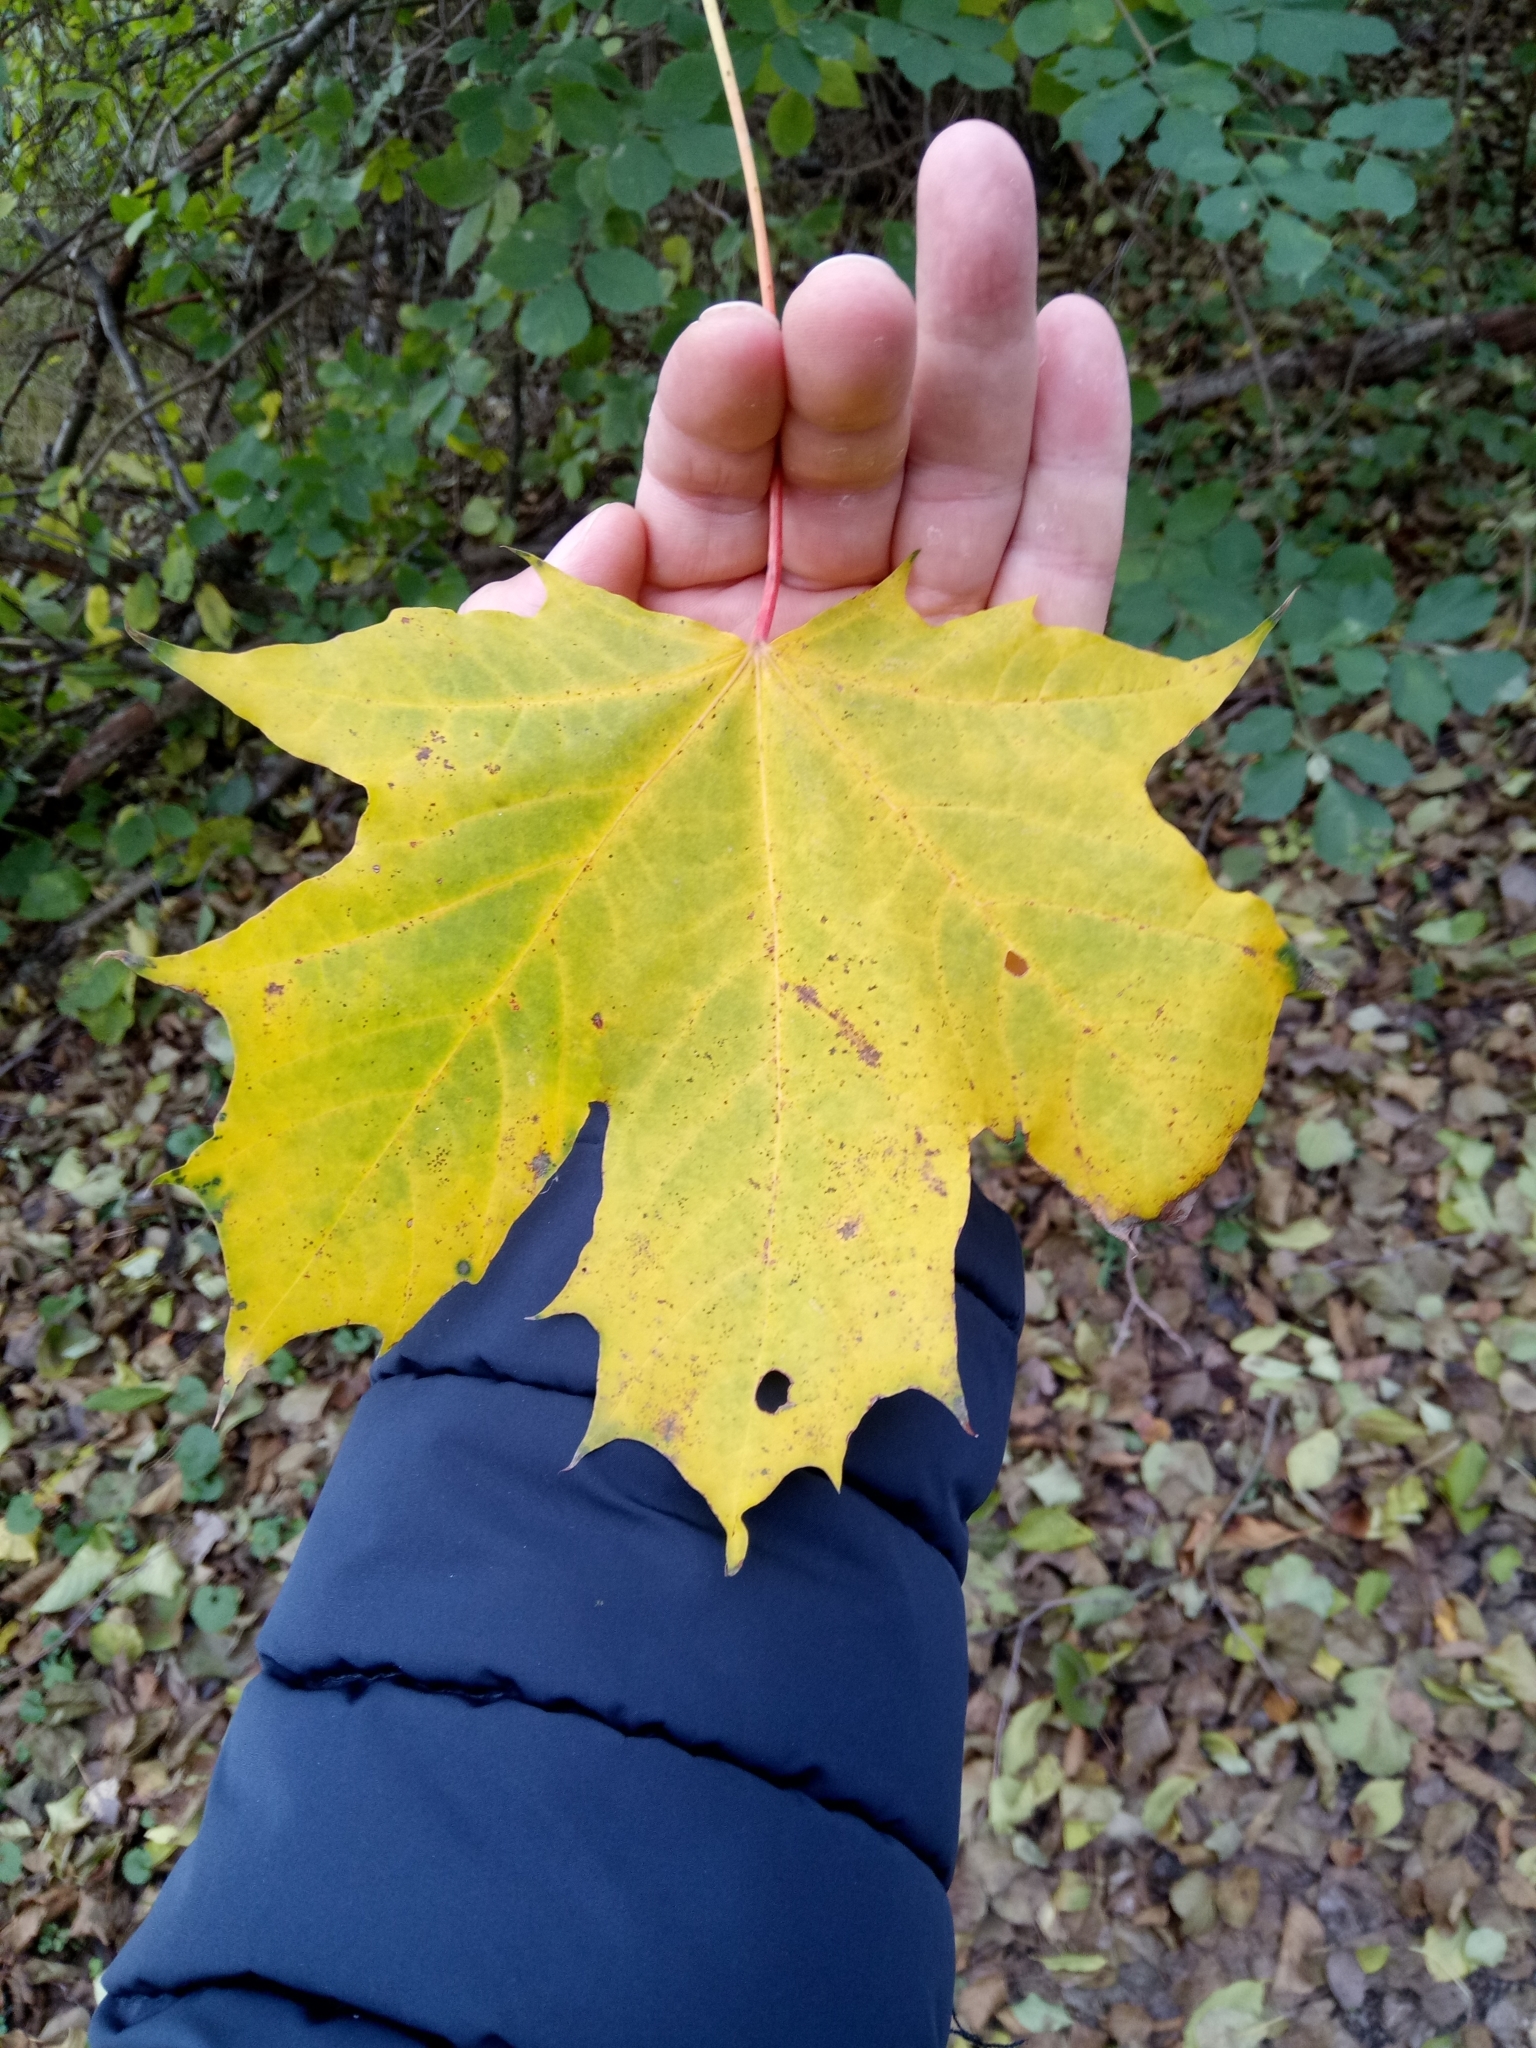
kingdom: Plantae
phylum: Tracheophyta
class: Magnoliopsida
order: Sapindales
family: Sapindaceae
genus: Acer
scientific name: Acer platanoides
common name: Norway maple
